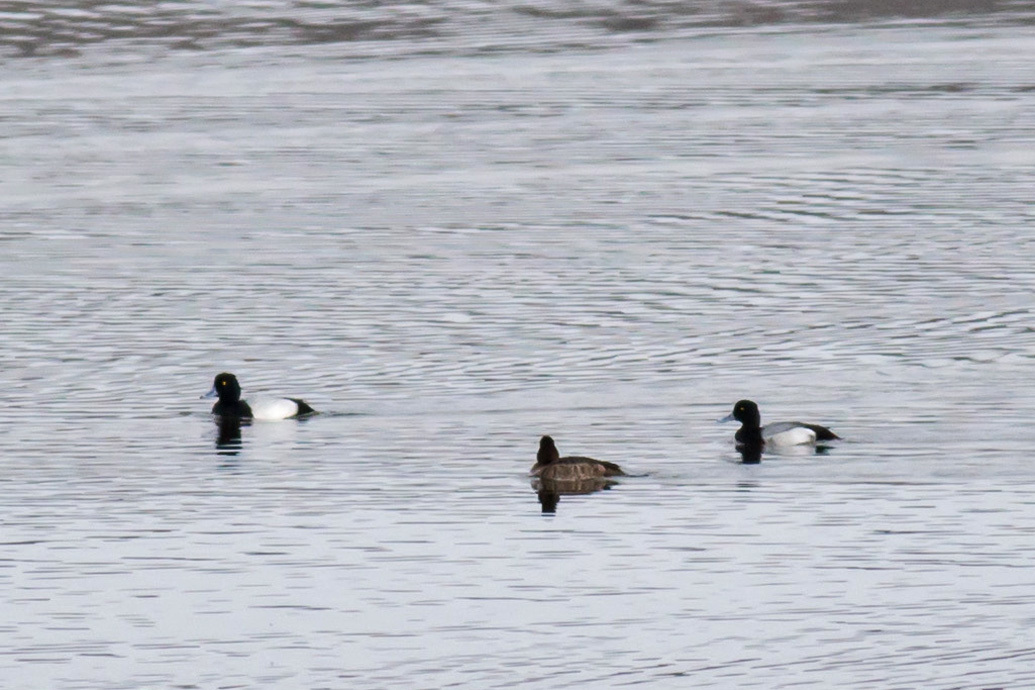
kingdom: Animalia
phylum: Chordata
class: Aves
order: Anseriformes
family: Anatidae
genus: Aythya
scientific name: Aythya affinis
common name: Lesser scaup
